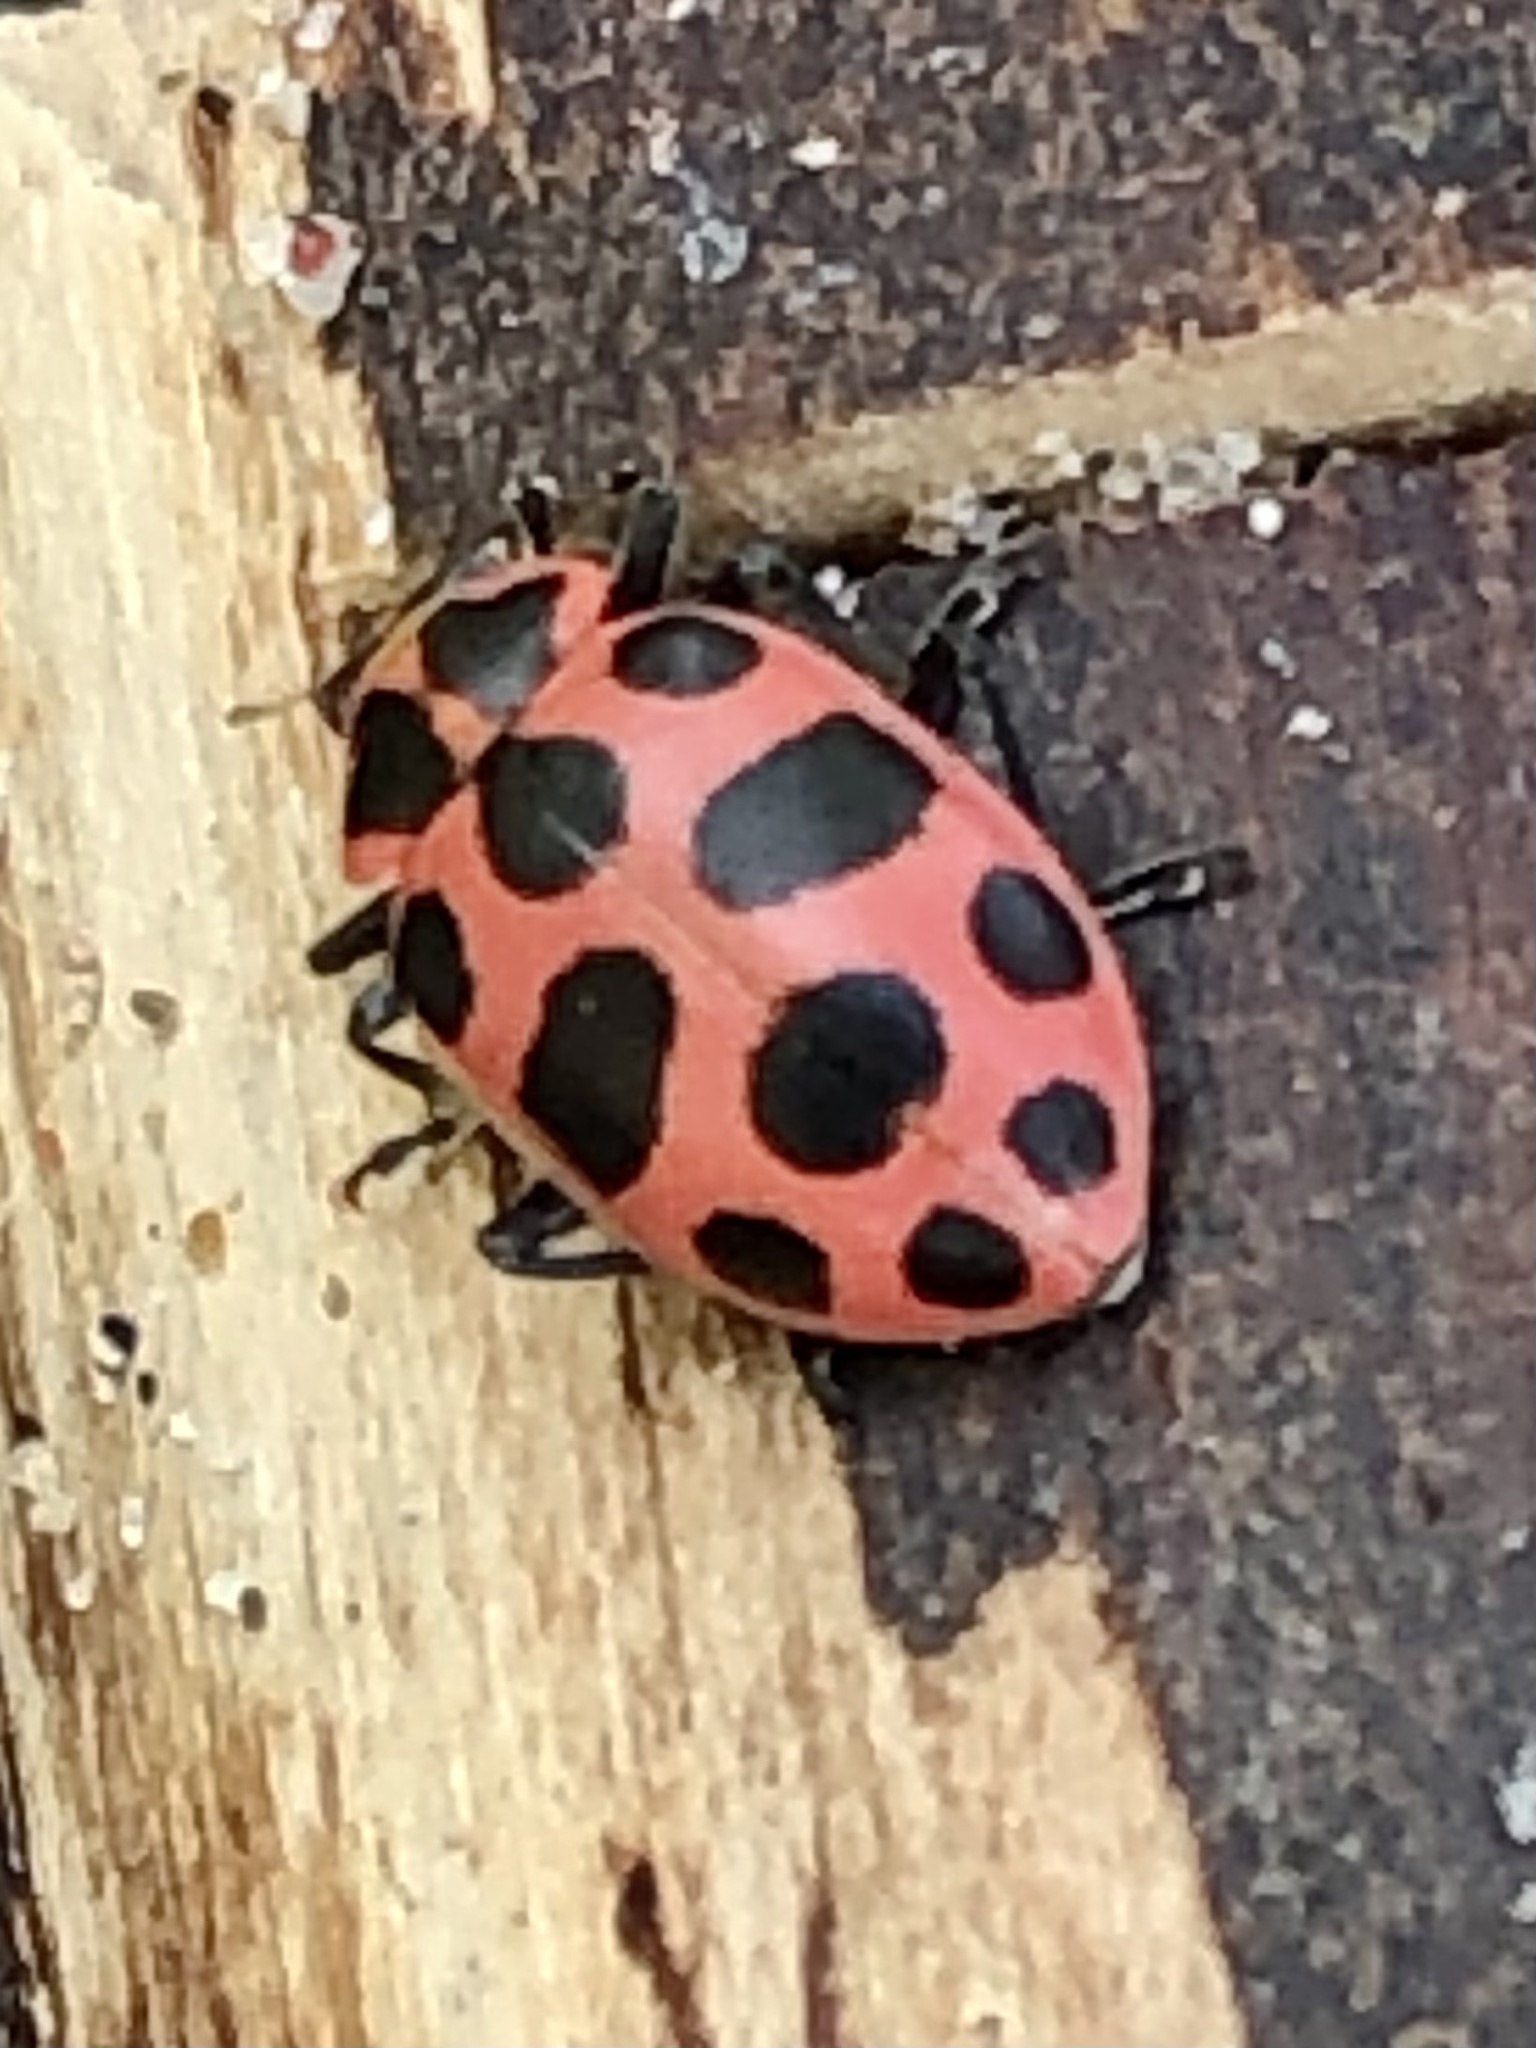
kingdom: Animalia
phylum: Arthropoda
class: Insecta
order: Coleoptera
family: Coccinellidae
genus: Coleomegilla
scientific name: Coleomegilla maculata
